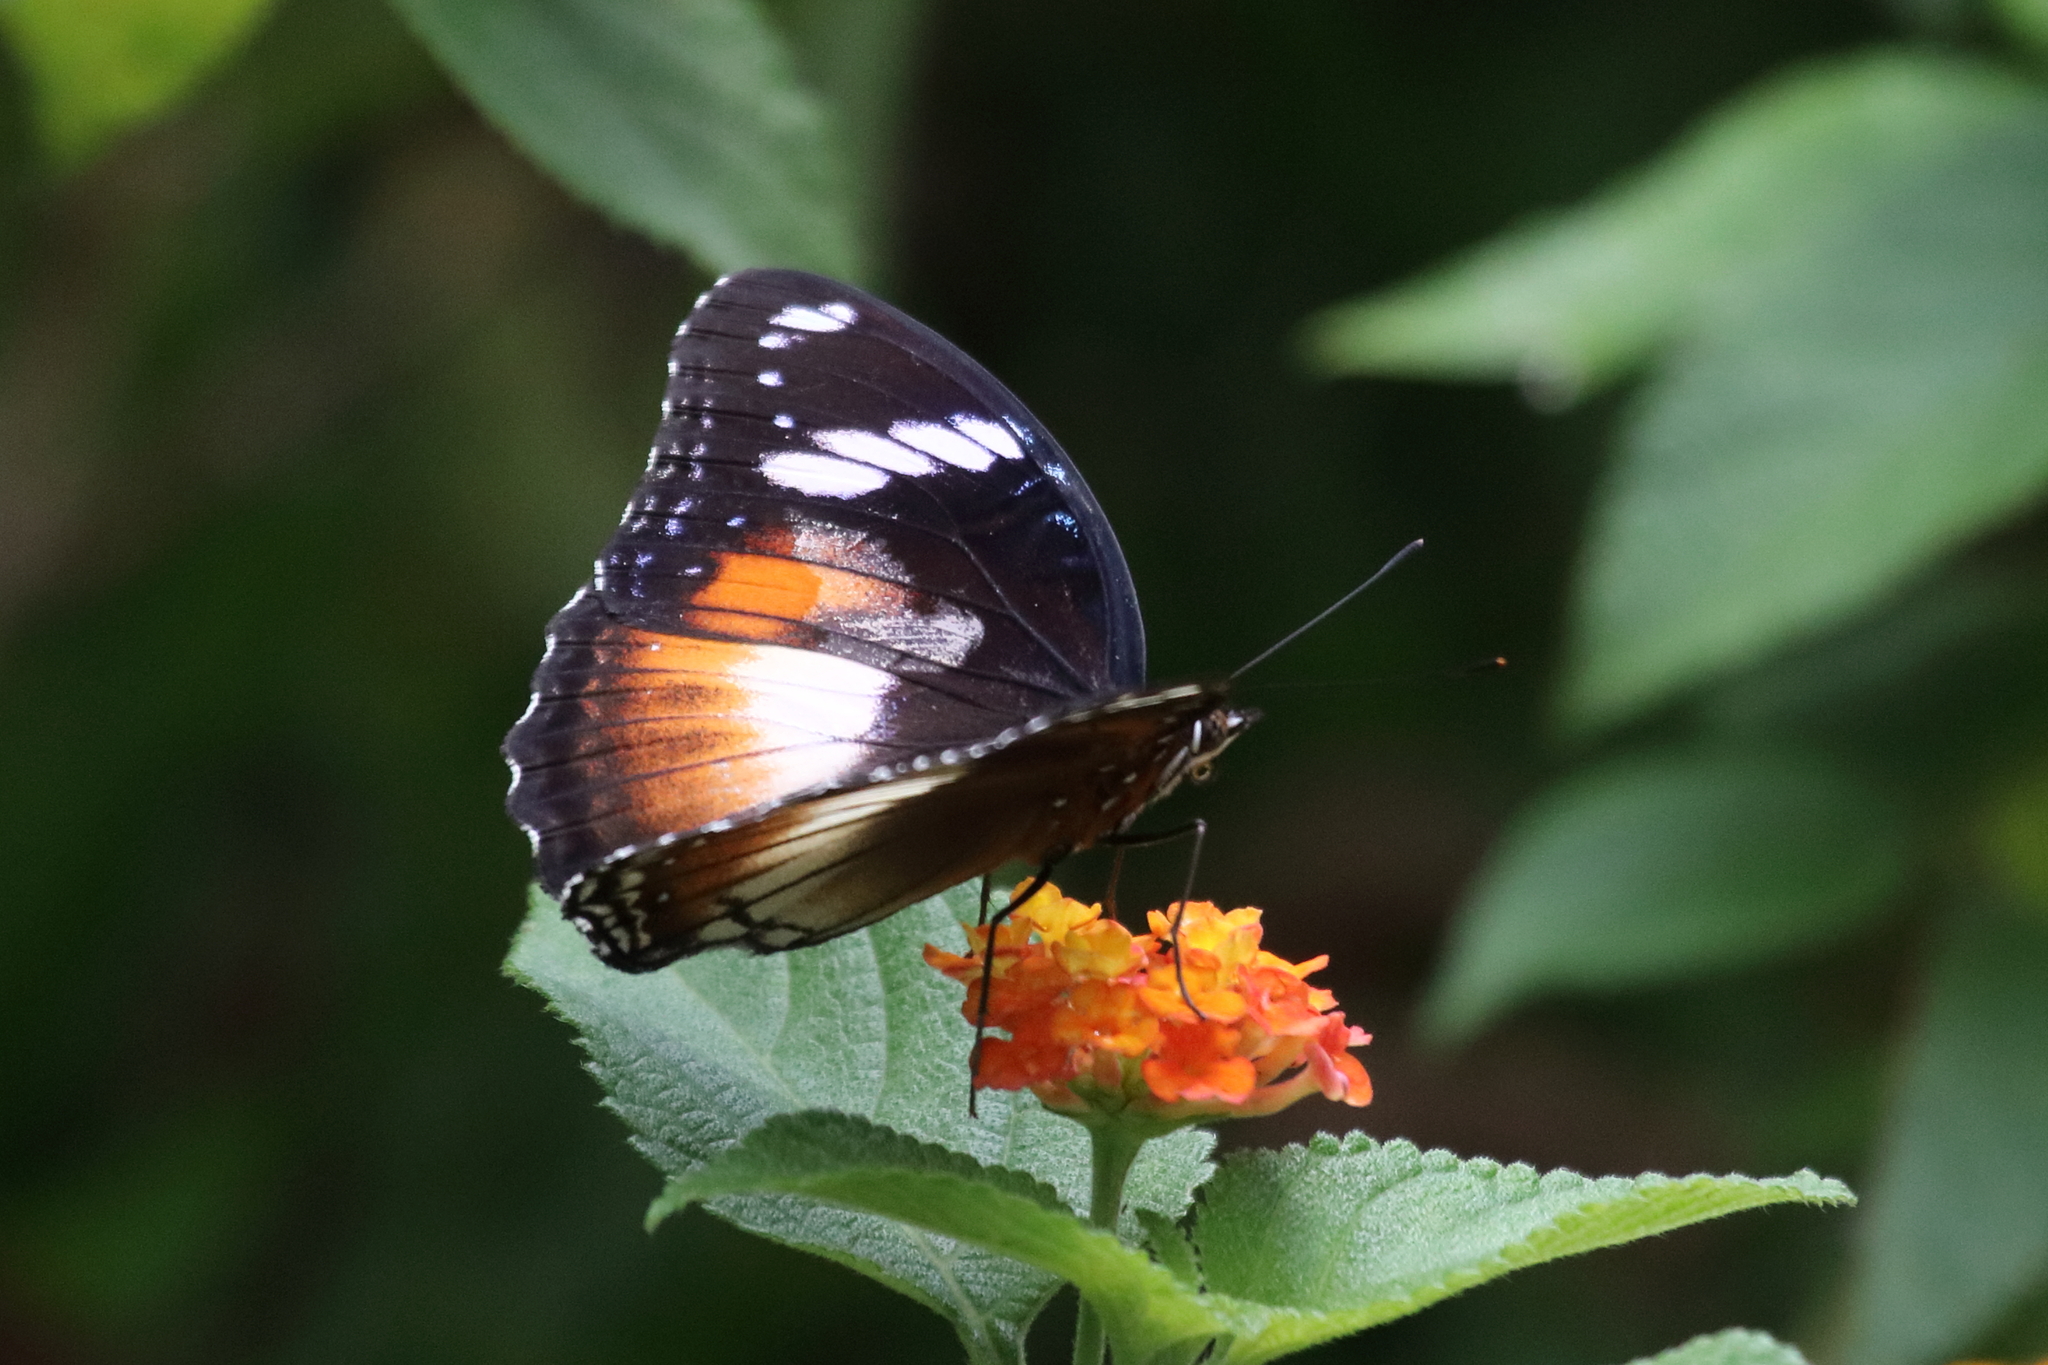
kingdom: Animalia
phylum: Arthropoda
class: Insecta
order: Lepidoptera
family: Nymphalidae
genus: Hypolimnas
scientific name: Hypolimnas bolina
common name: Great eggfly
